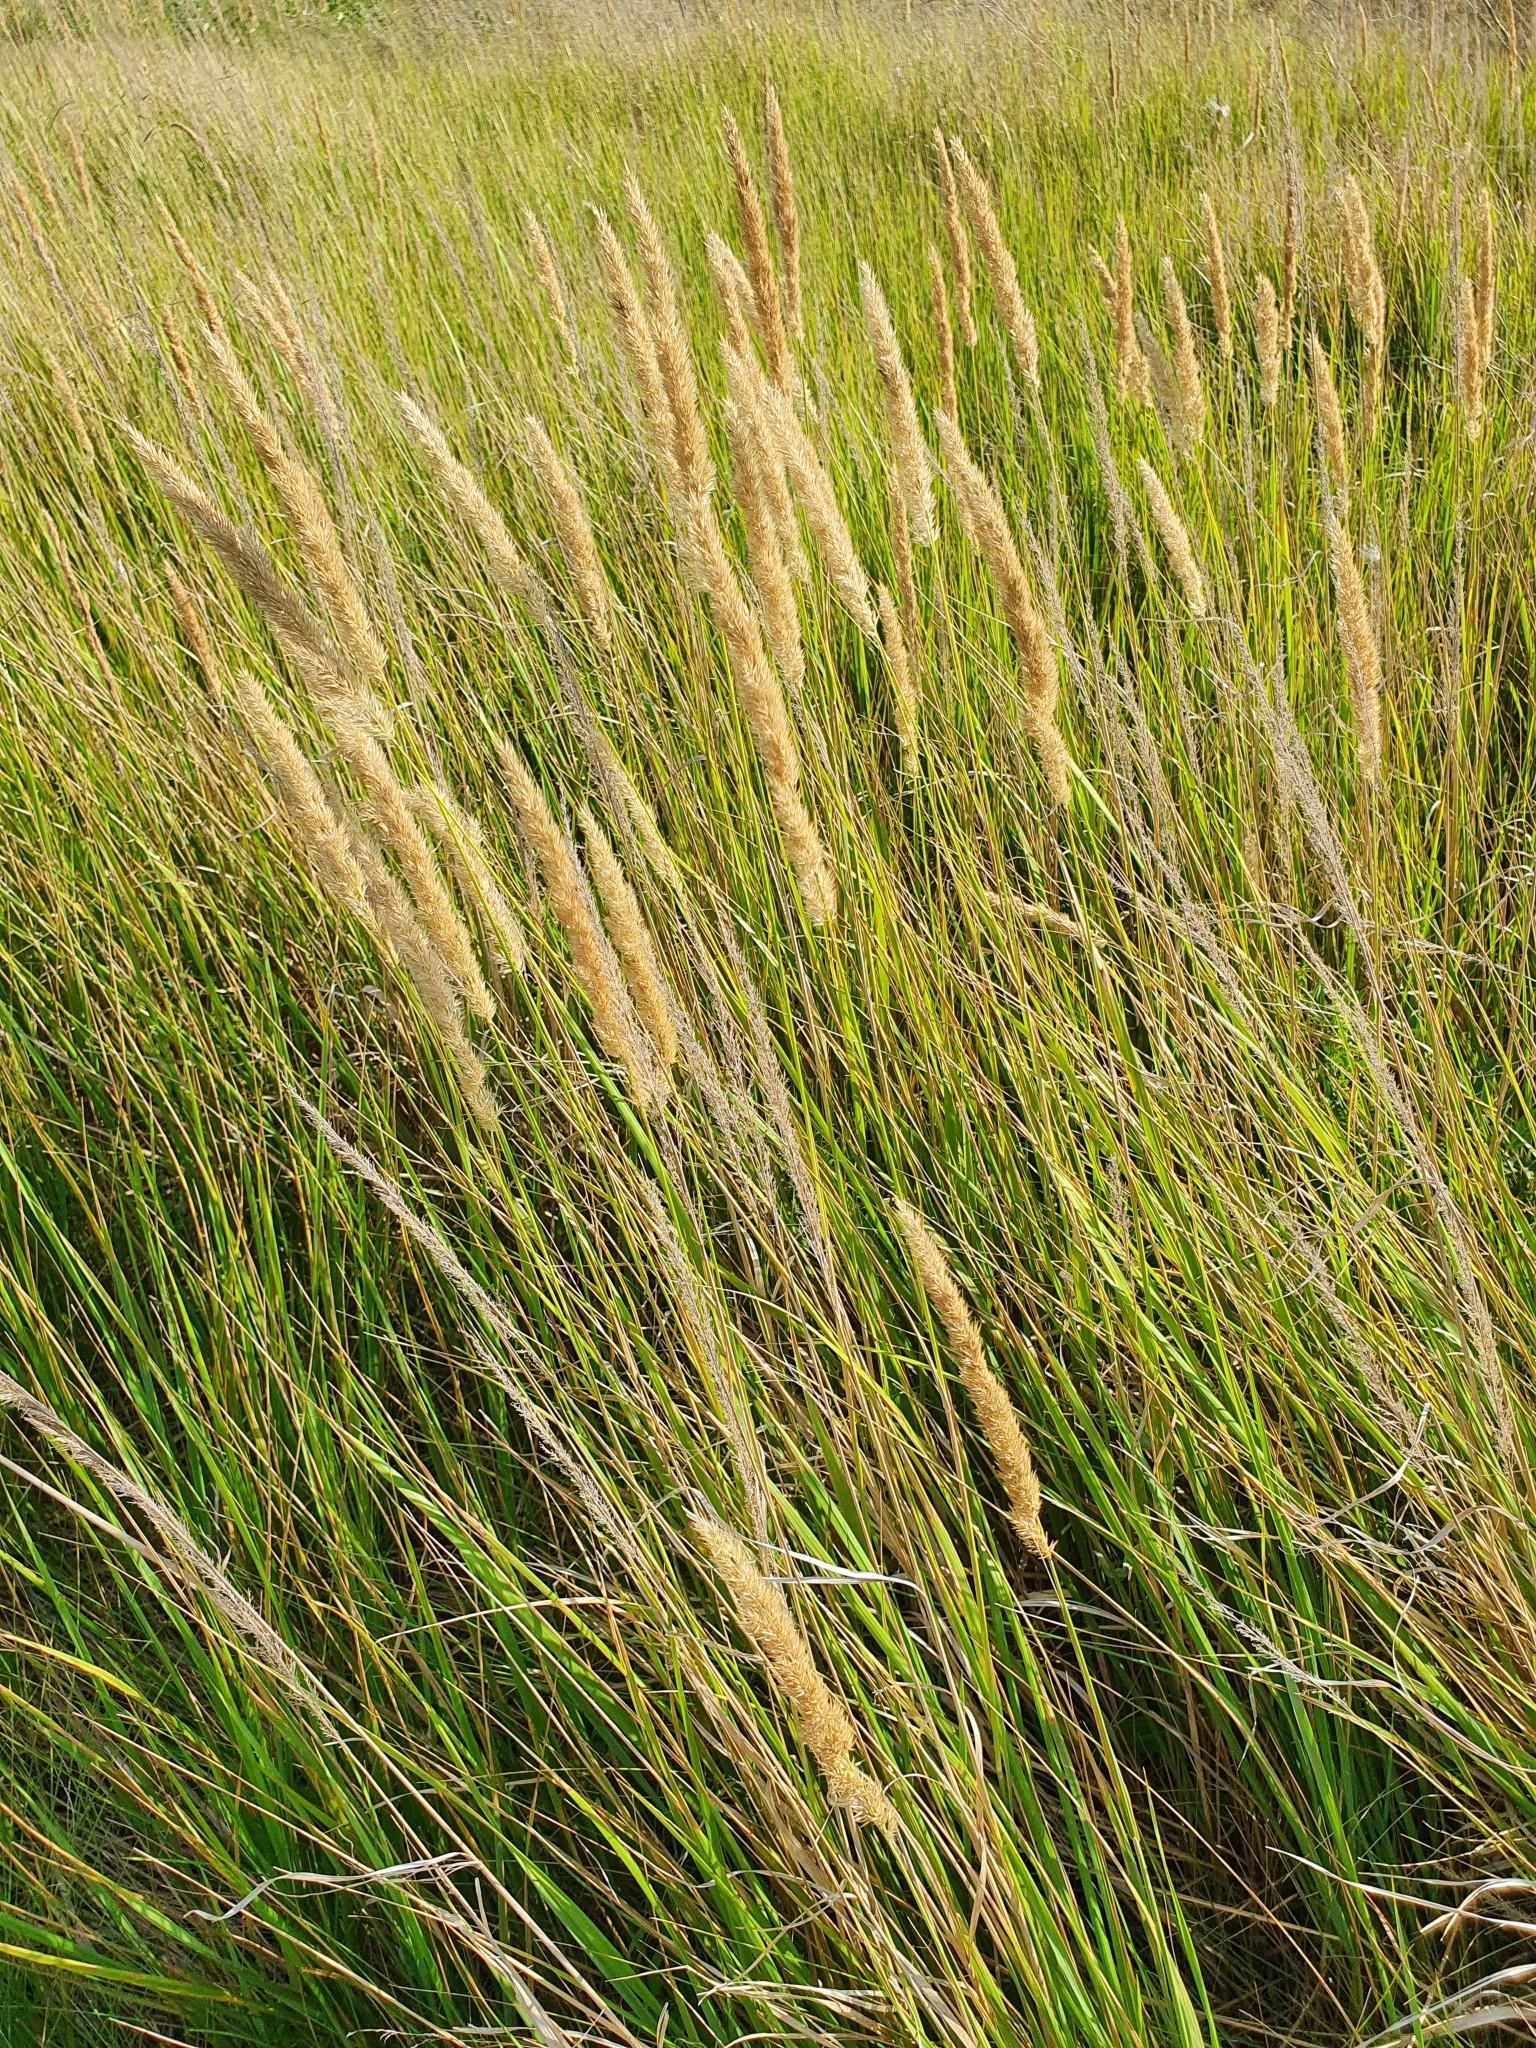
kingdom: Plantae
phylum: Tracheophyta
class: Liliopsida
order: Poales
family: Poaceae
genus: Calamagrostis
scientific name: Calamagrostis epigejos
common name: Wood small-reed
